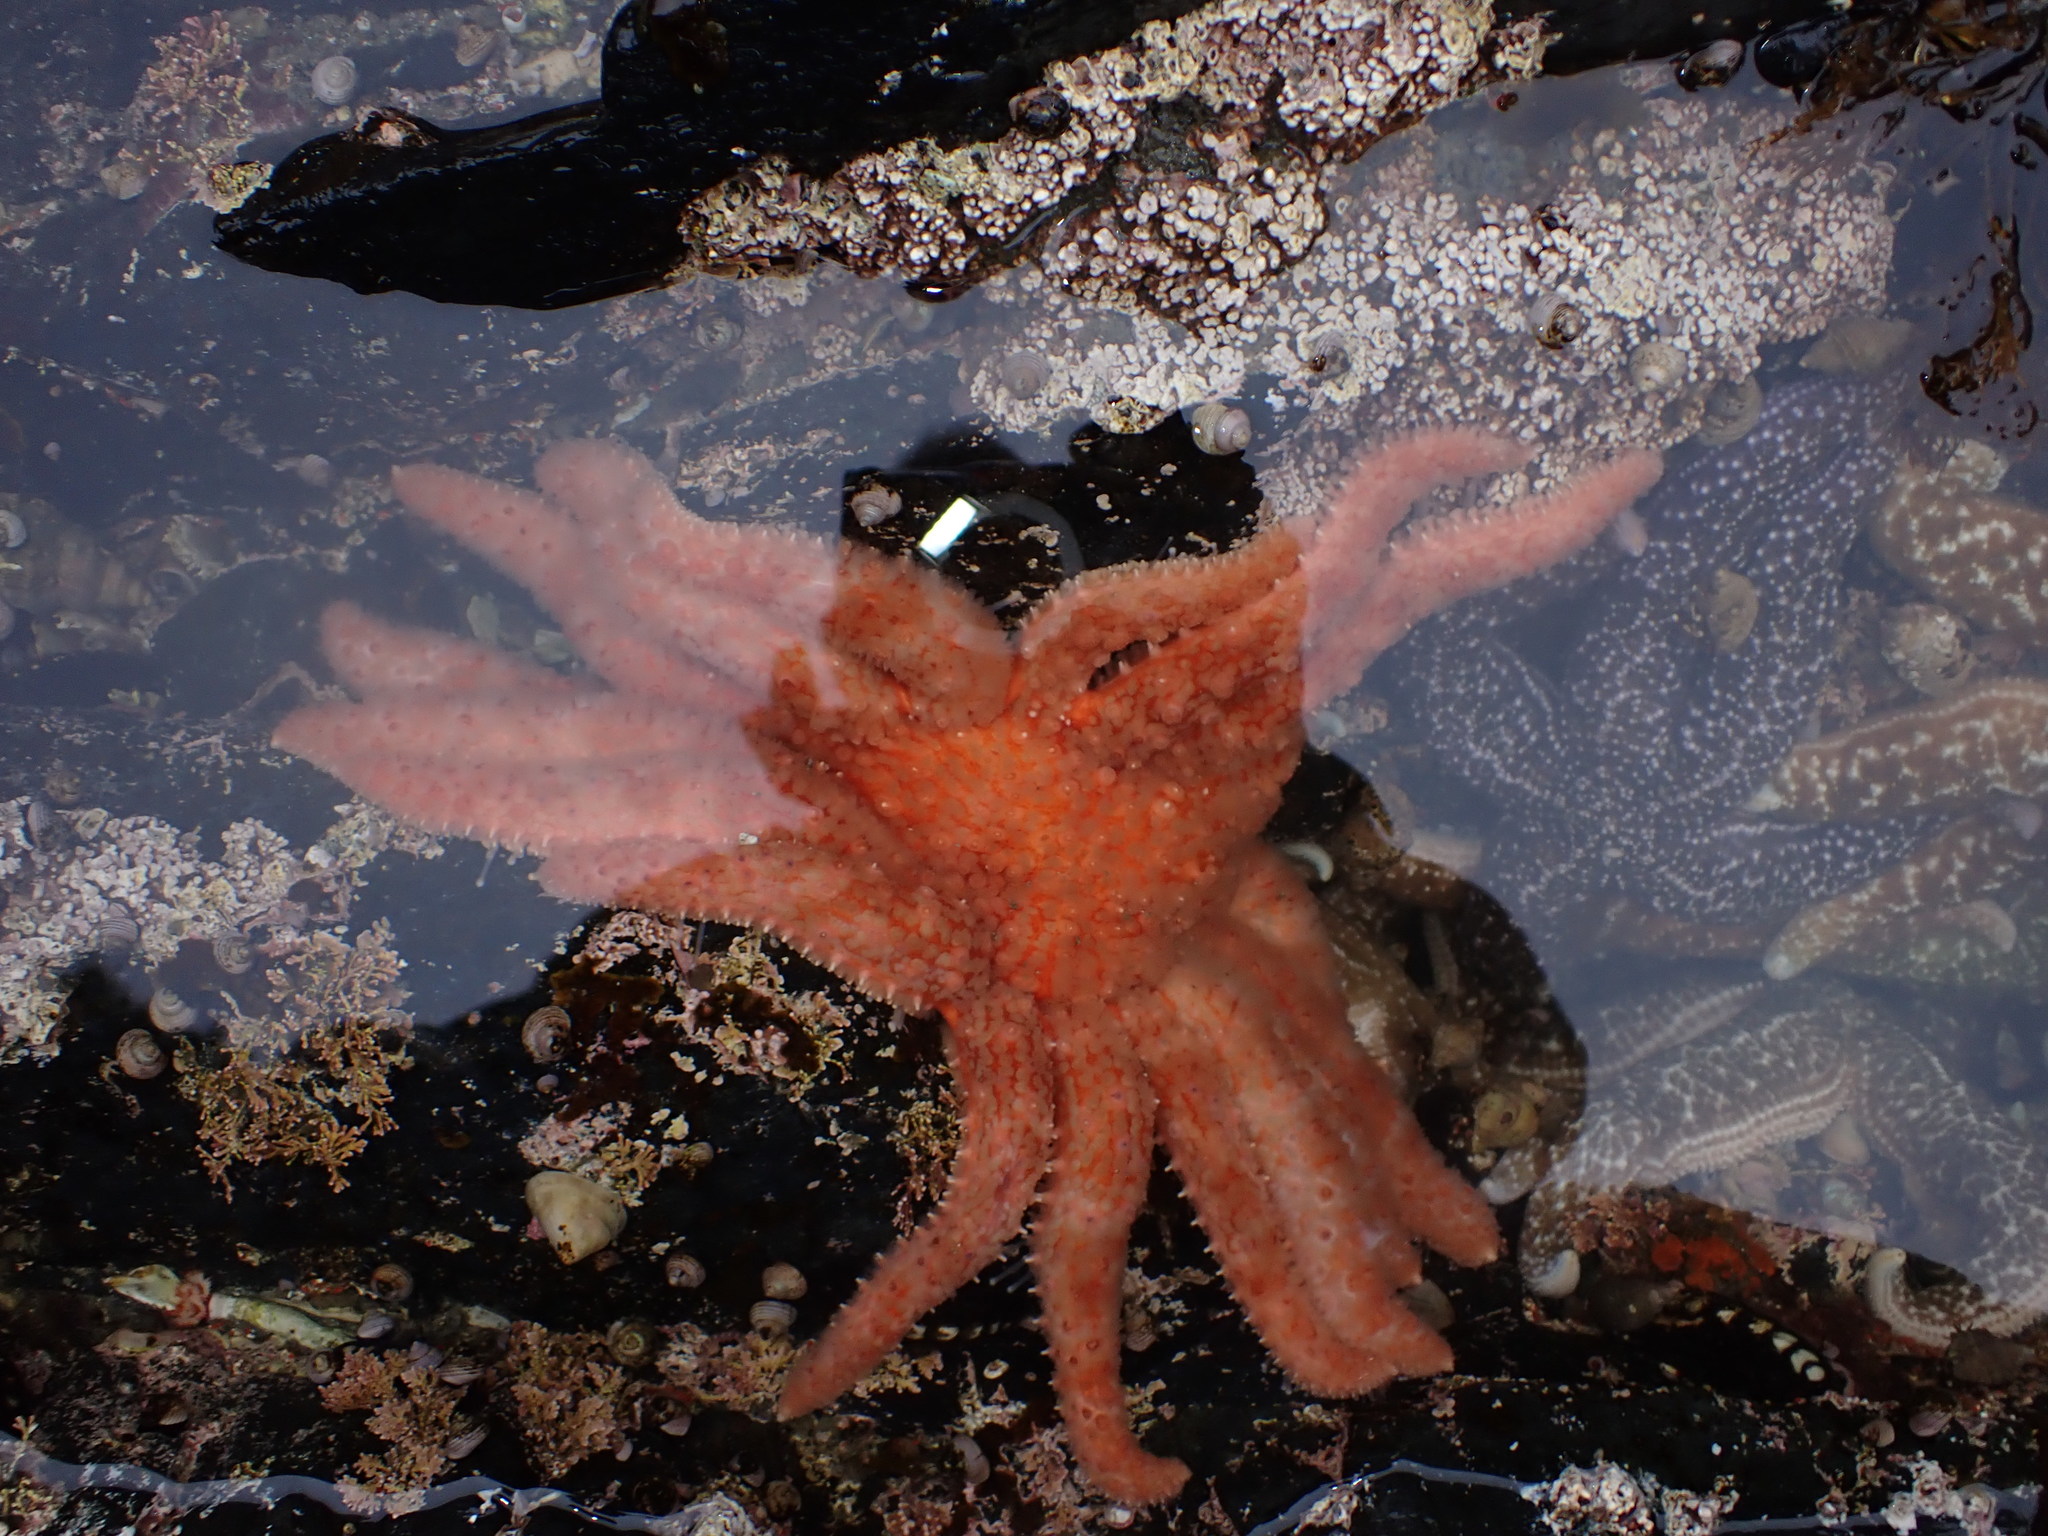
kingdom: Animalia
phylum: Echinodermata
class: Asteroidea
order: Forcipulatida
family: Asteriidae
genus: Pycnopodia
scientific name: Pycnopodia helianthoides
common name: Rag mop
